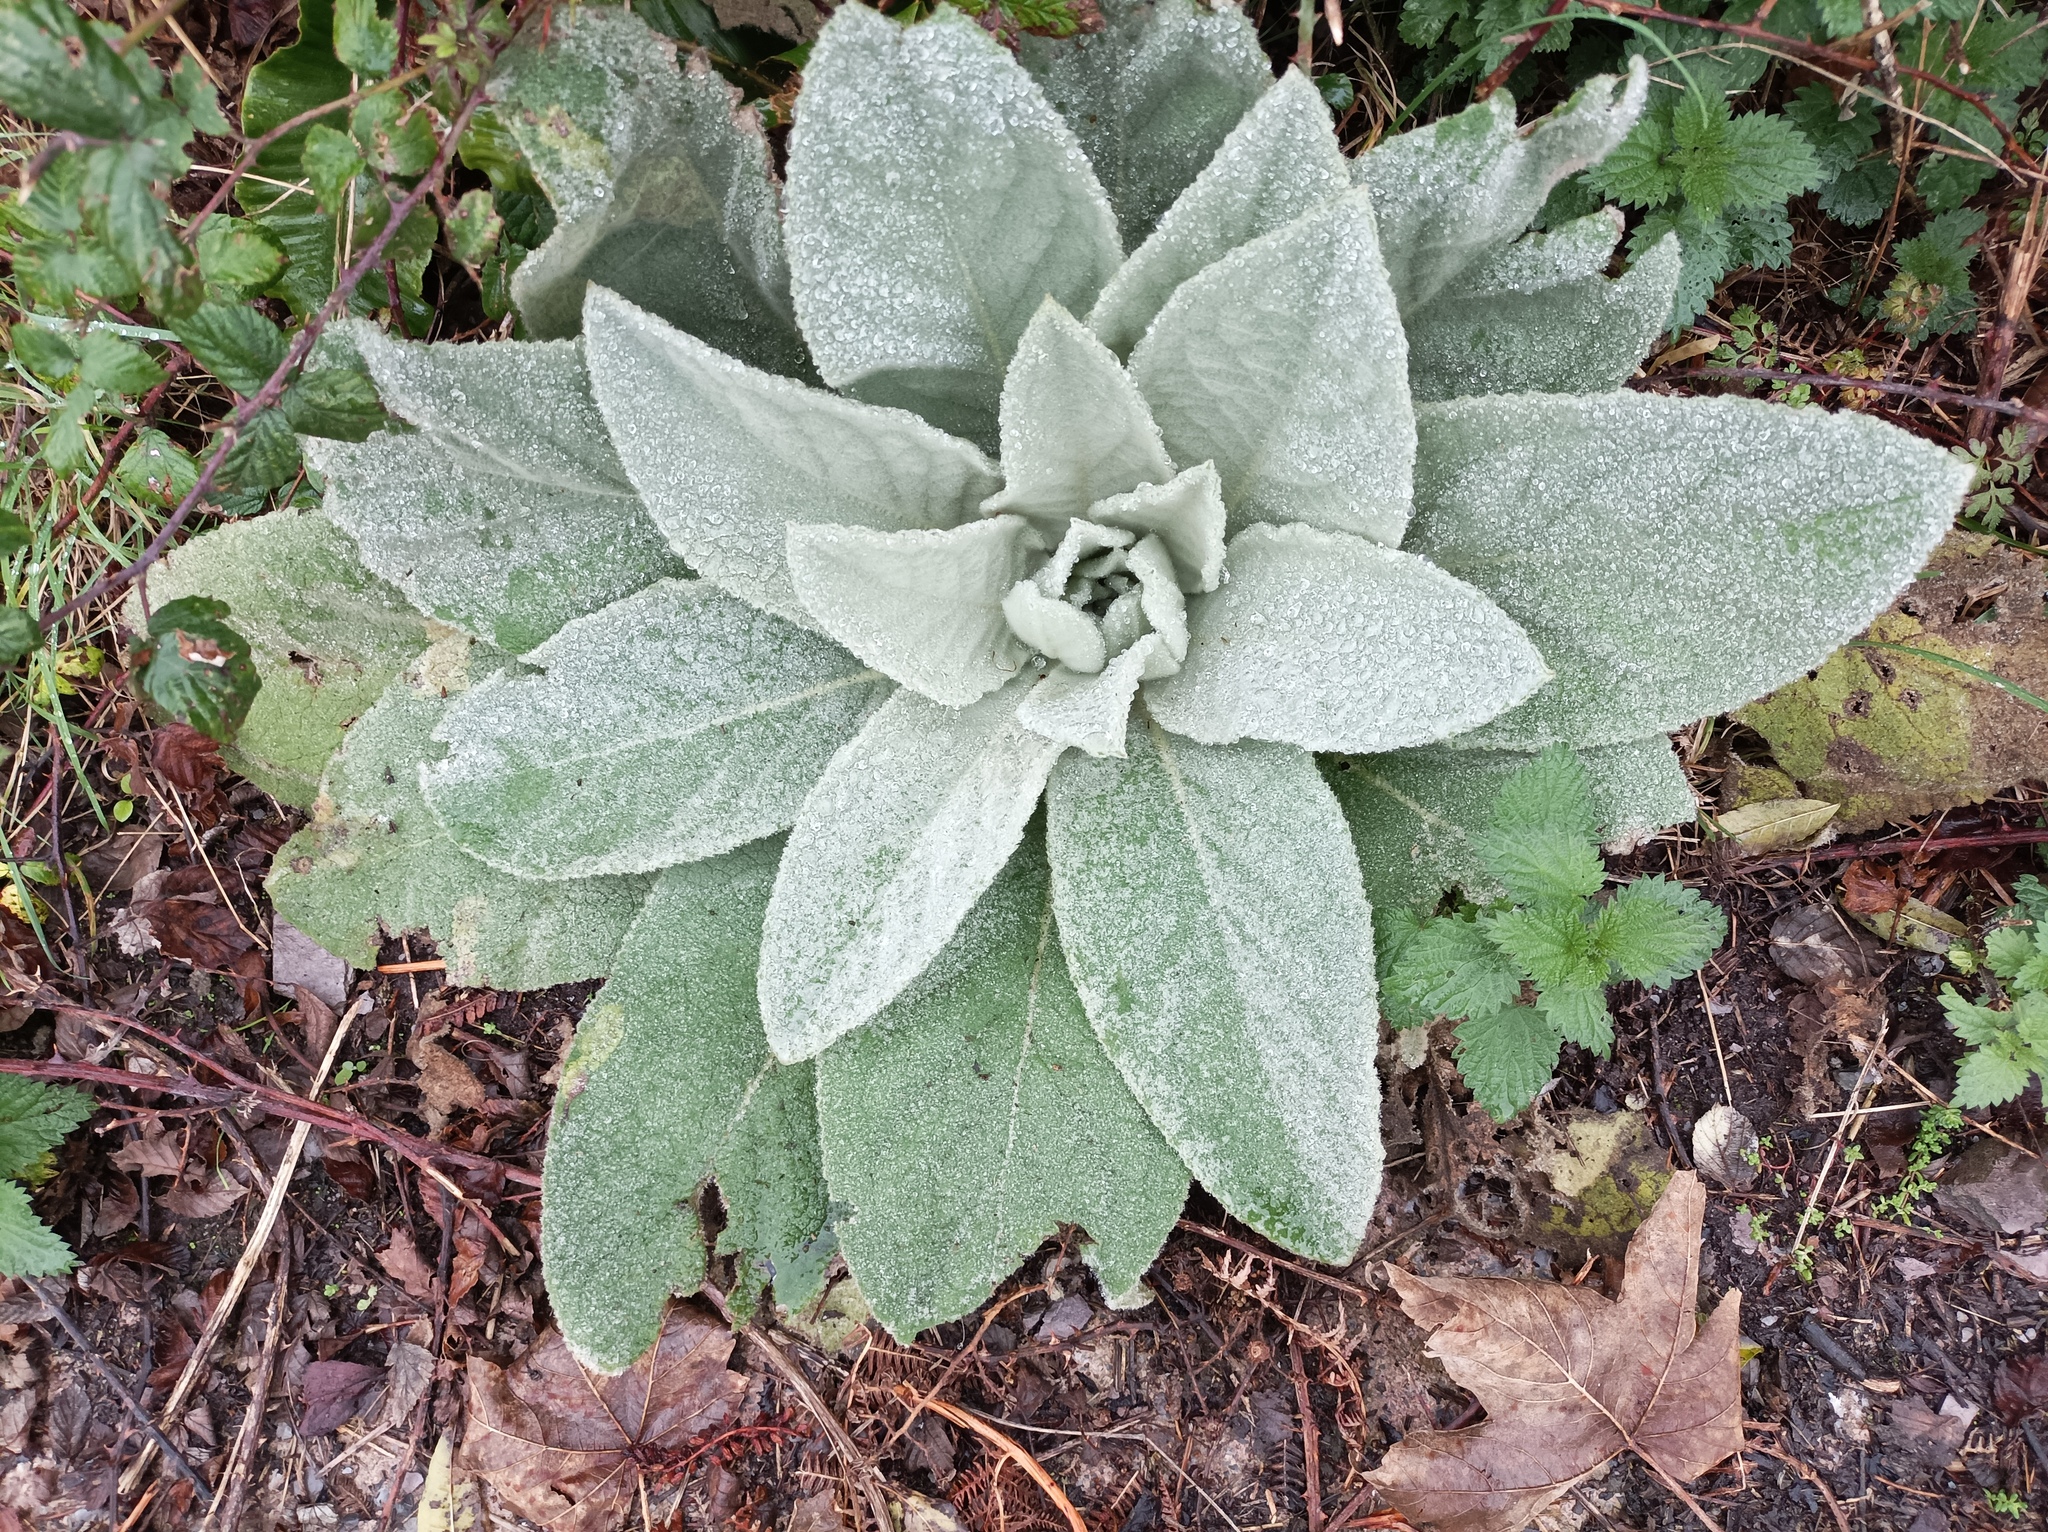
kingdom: Plantae
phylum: Tracheophyta
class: Magnoliopsida
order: Lamiales
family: Scrophulariaceae
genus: Verbascum
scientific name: Verbascum thapsus
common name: Common mullein
